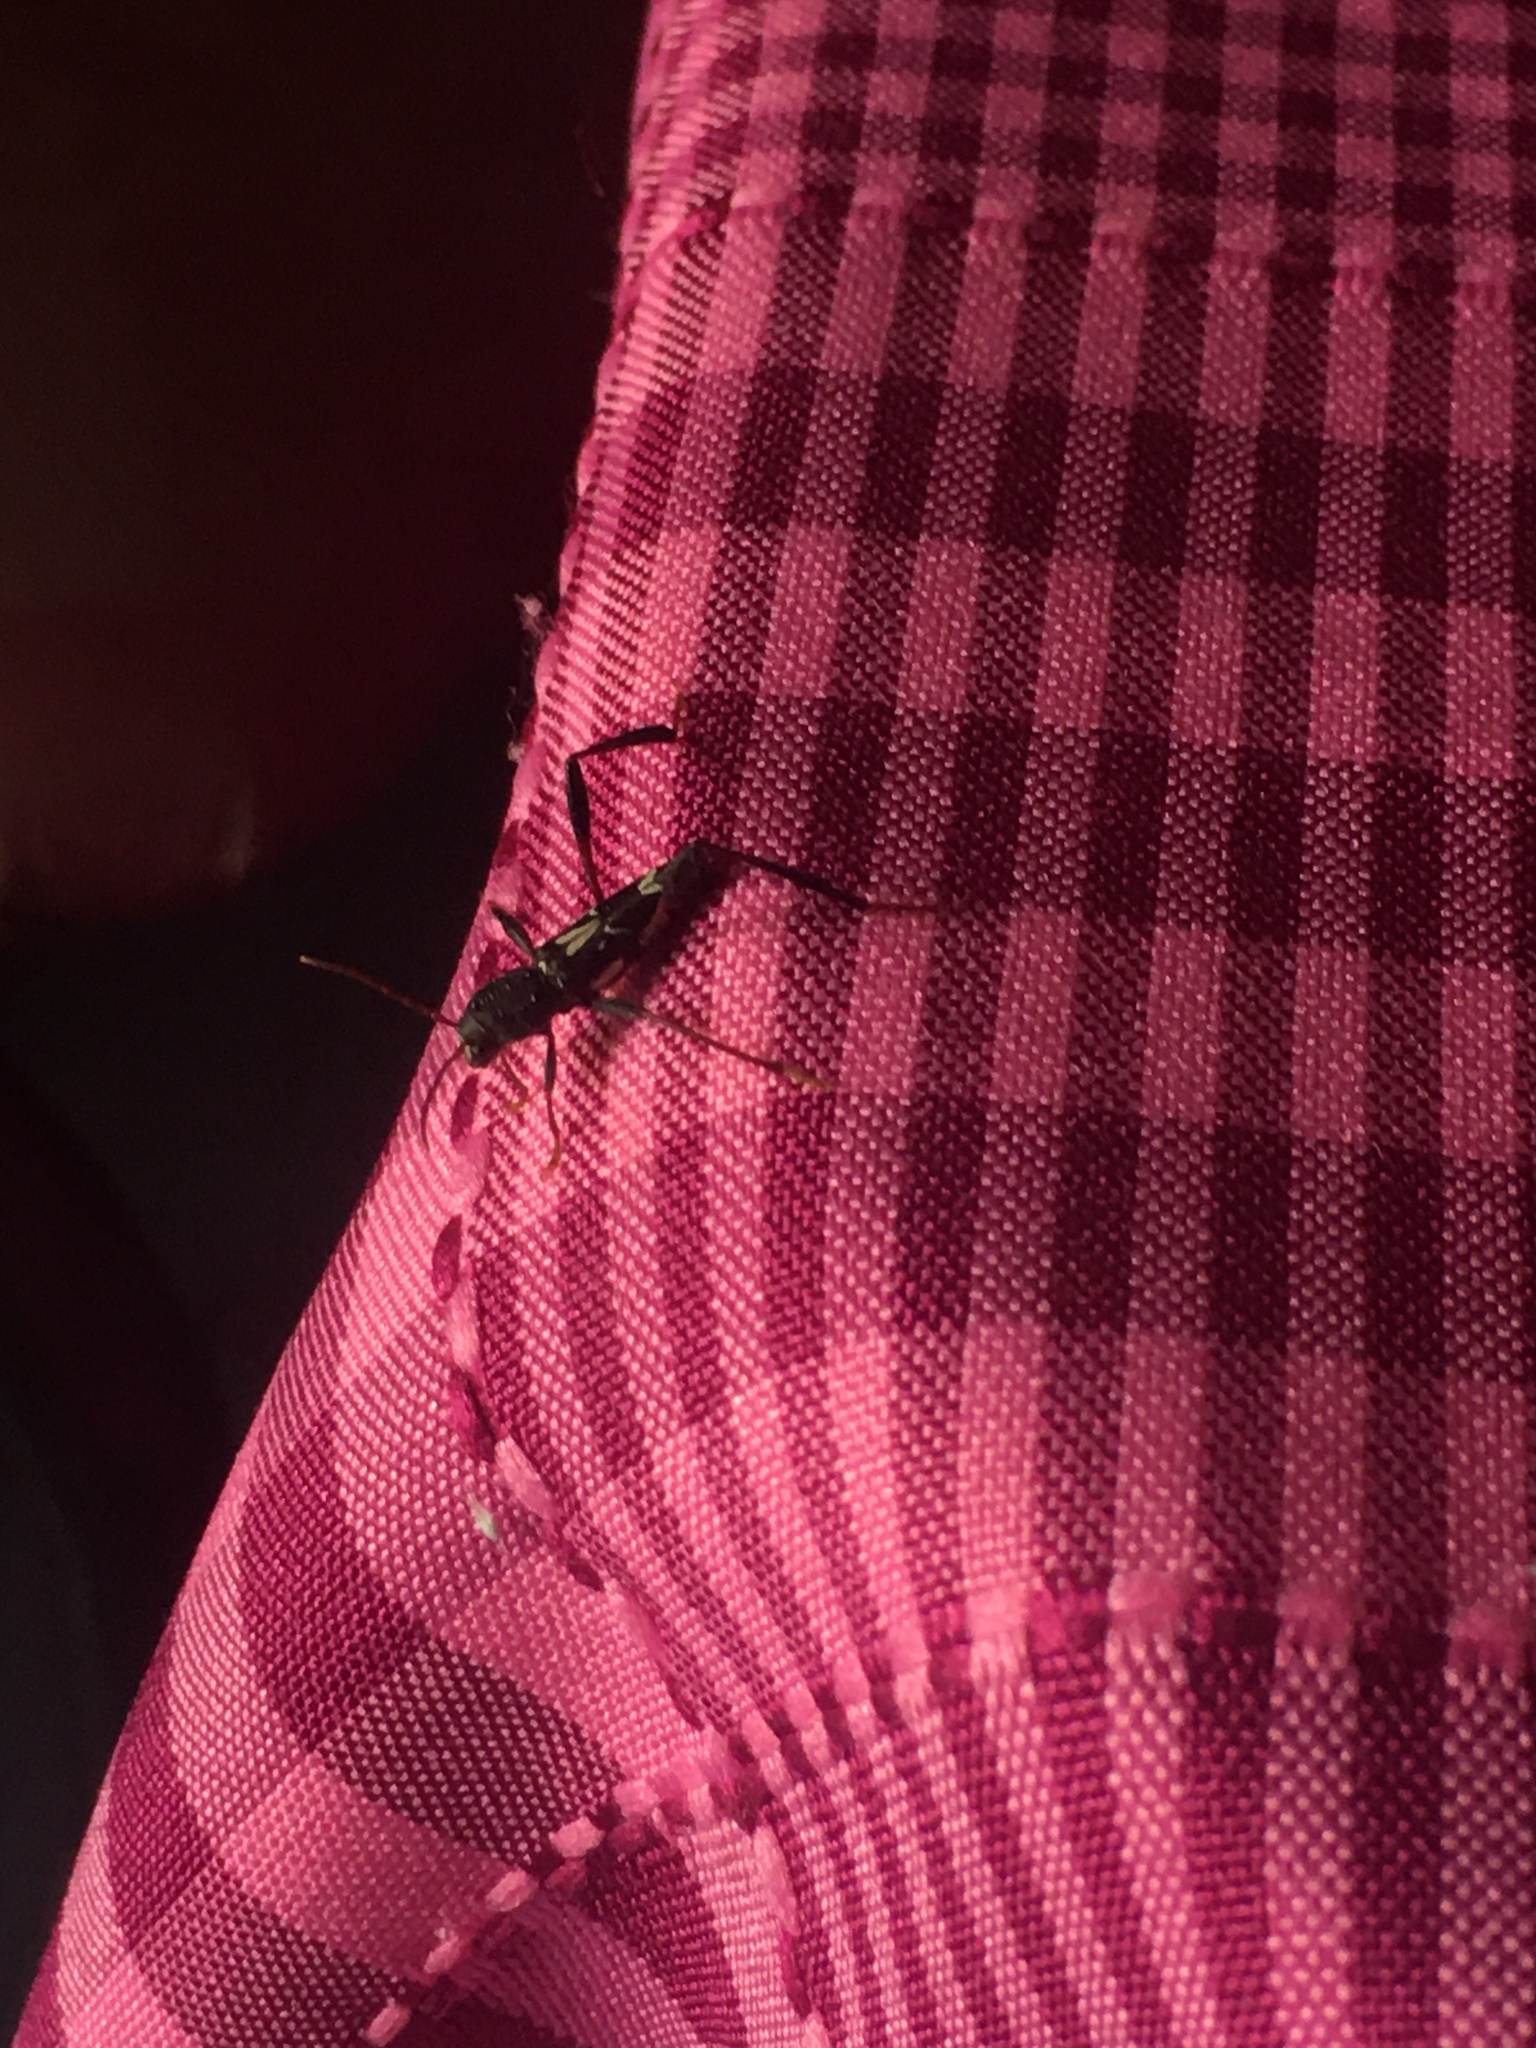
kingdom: Animalia
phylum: Arthropoda
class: Insecta
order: Coleoptera
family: Cerambycidae
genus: Neoclytus
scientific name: Neoclytus ypsilon
